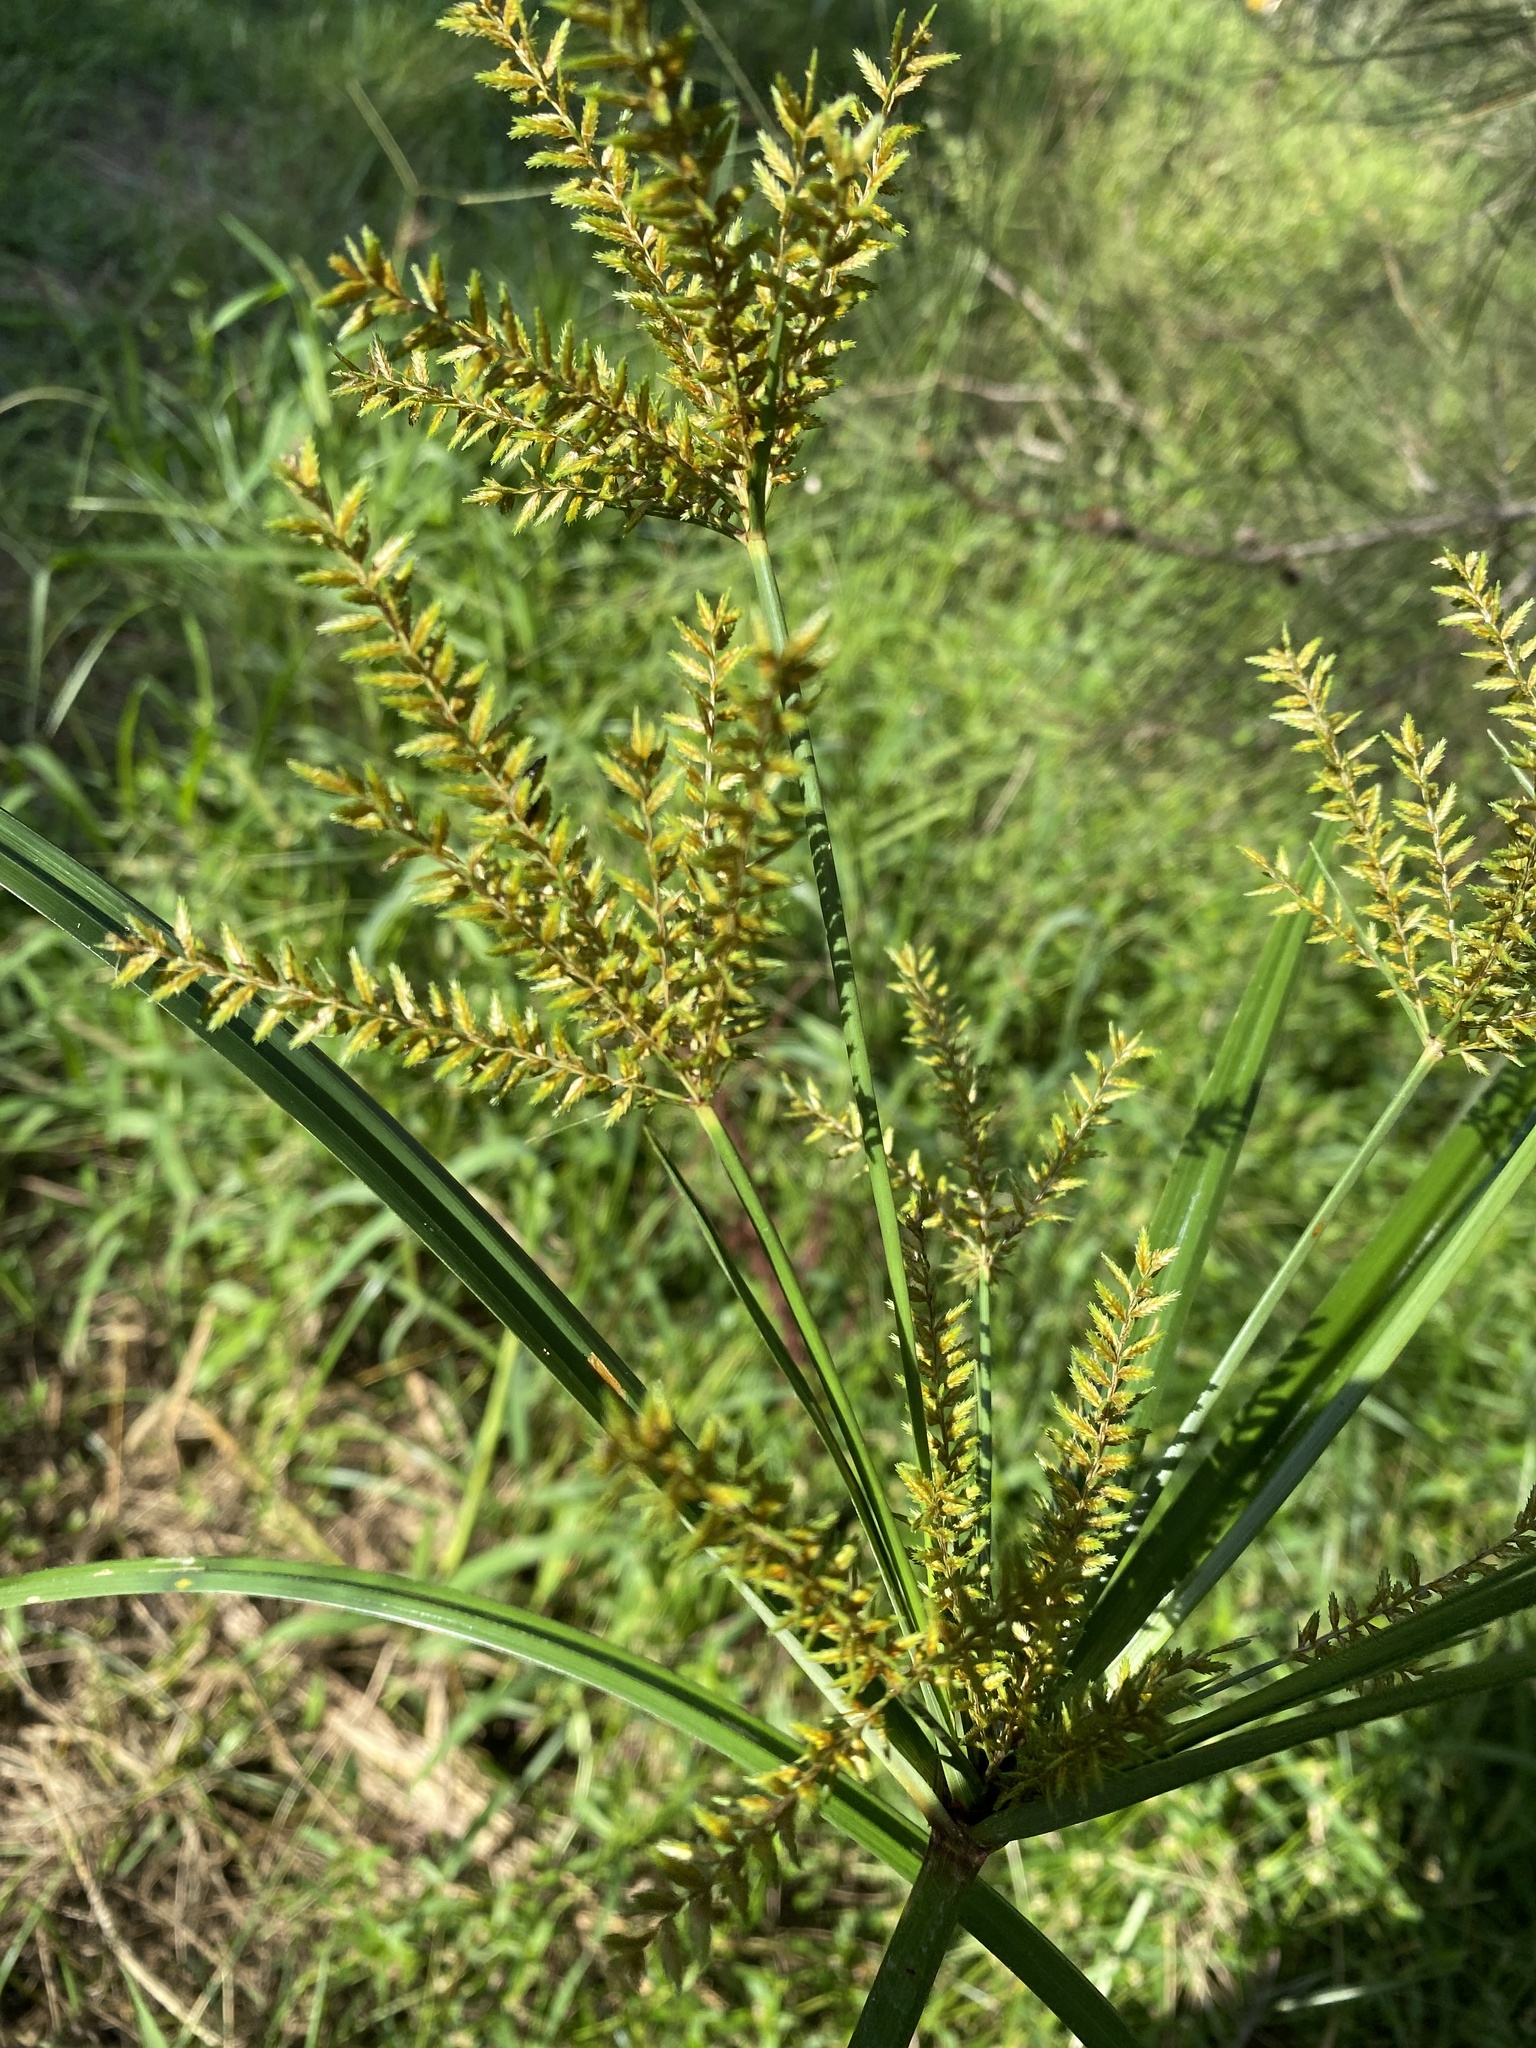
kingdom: Plantae
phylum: Tracheophyta
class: Liliopsida
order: Poales
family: Cyperaceae
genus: Cyperus
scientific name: Cyperus exaltatus
